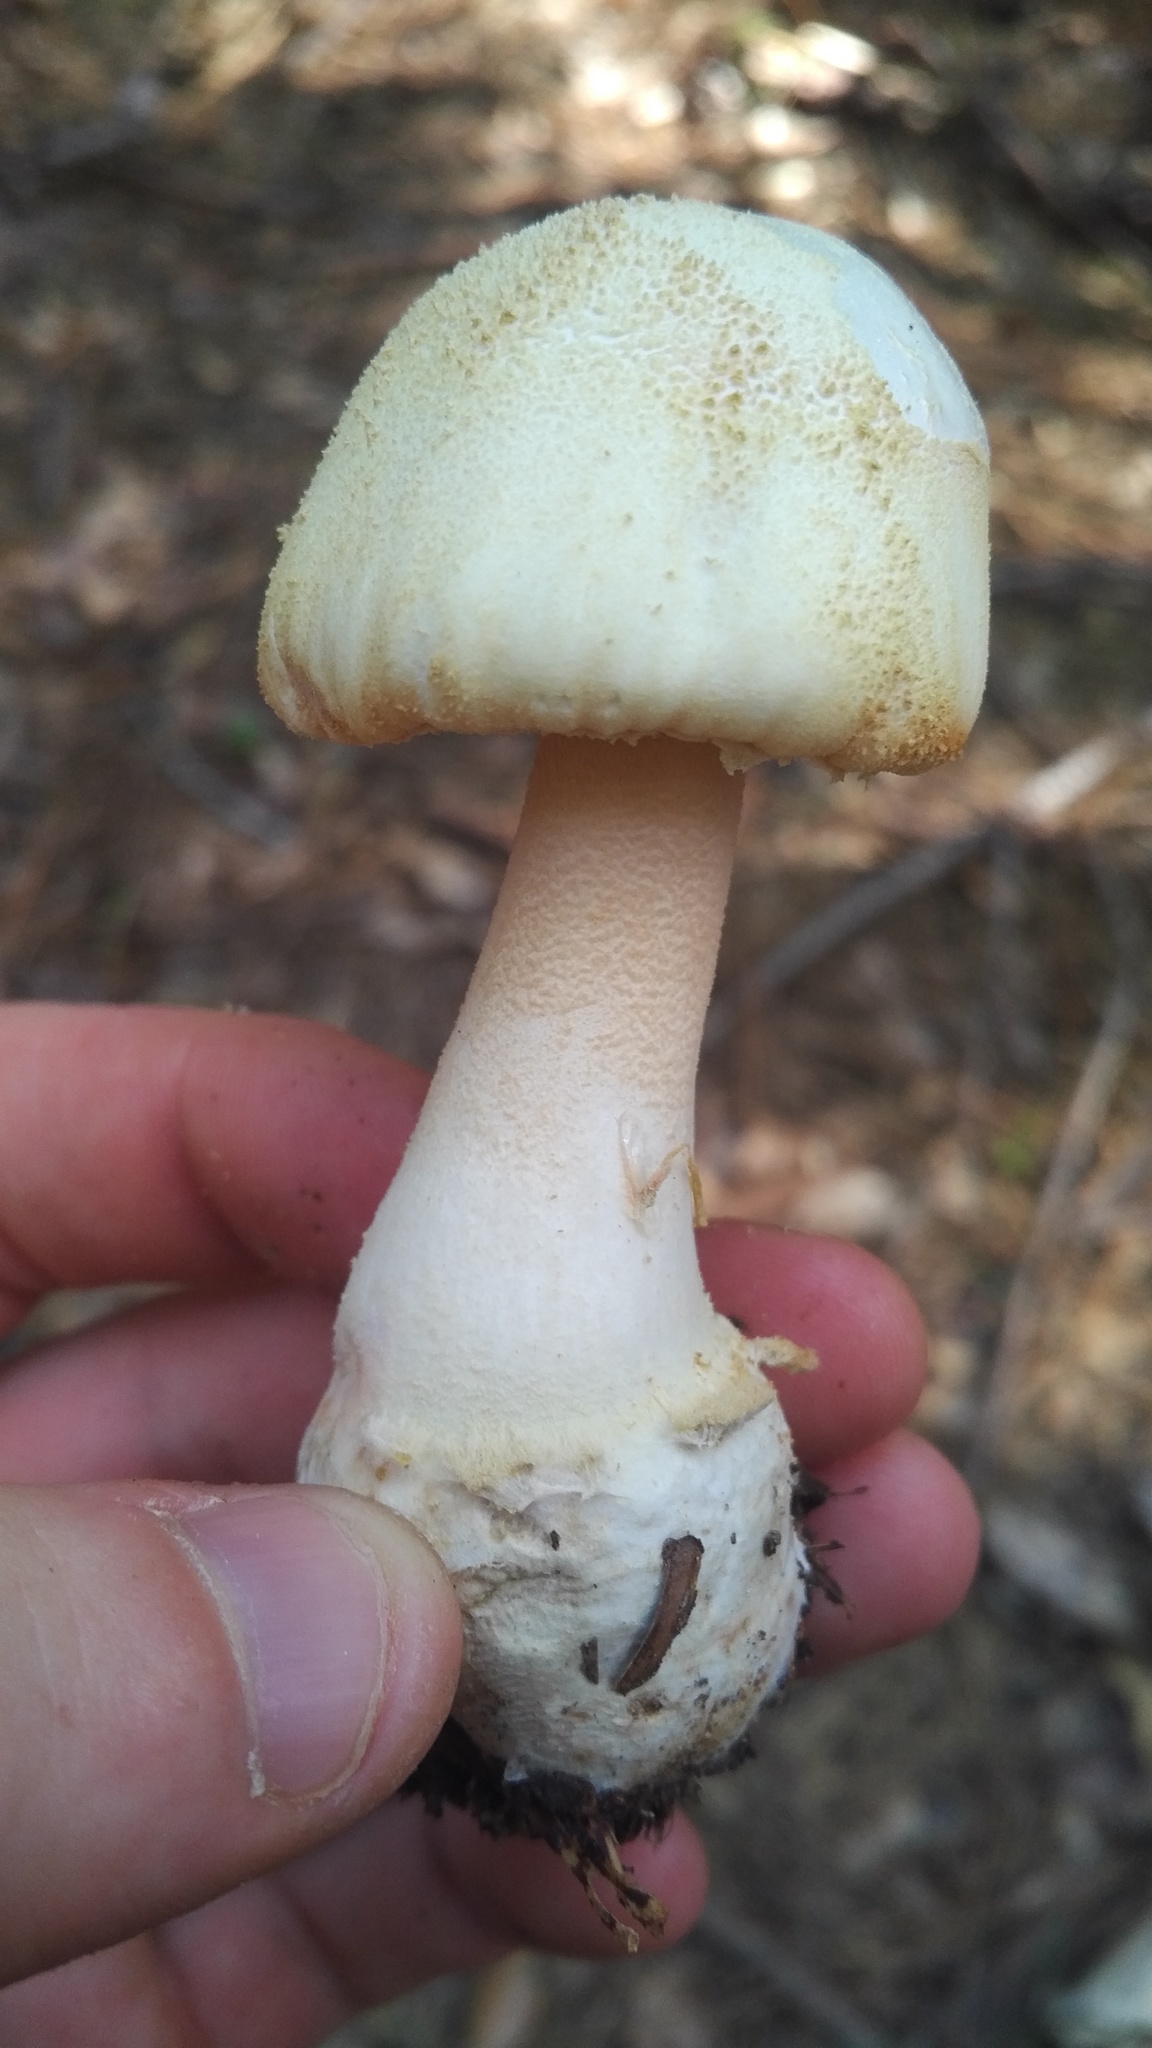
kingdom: Fungi
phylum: Basidiomycota
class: Agaricomycetes
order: Agaricales
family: Amanitaceae
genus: Amanita
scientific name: Amanita roseotincta
